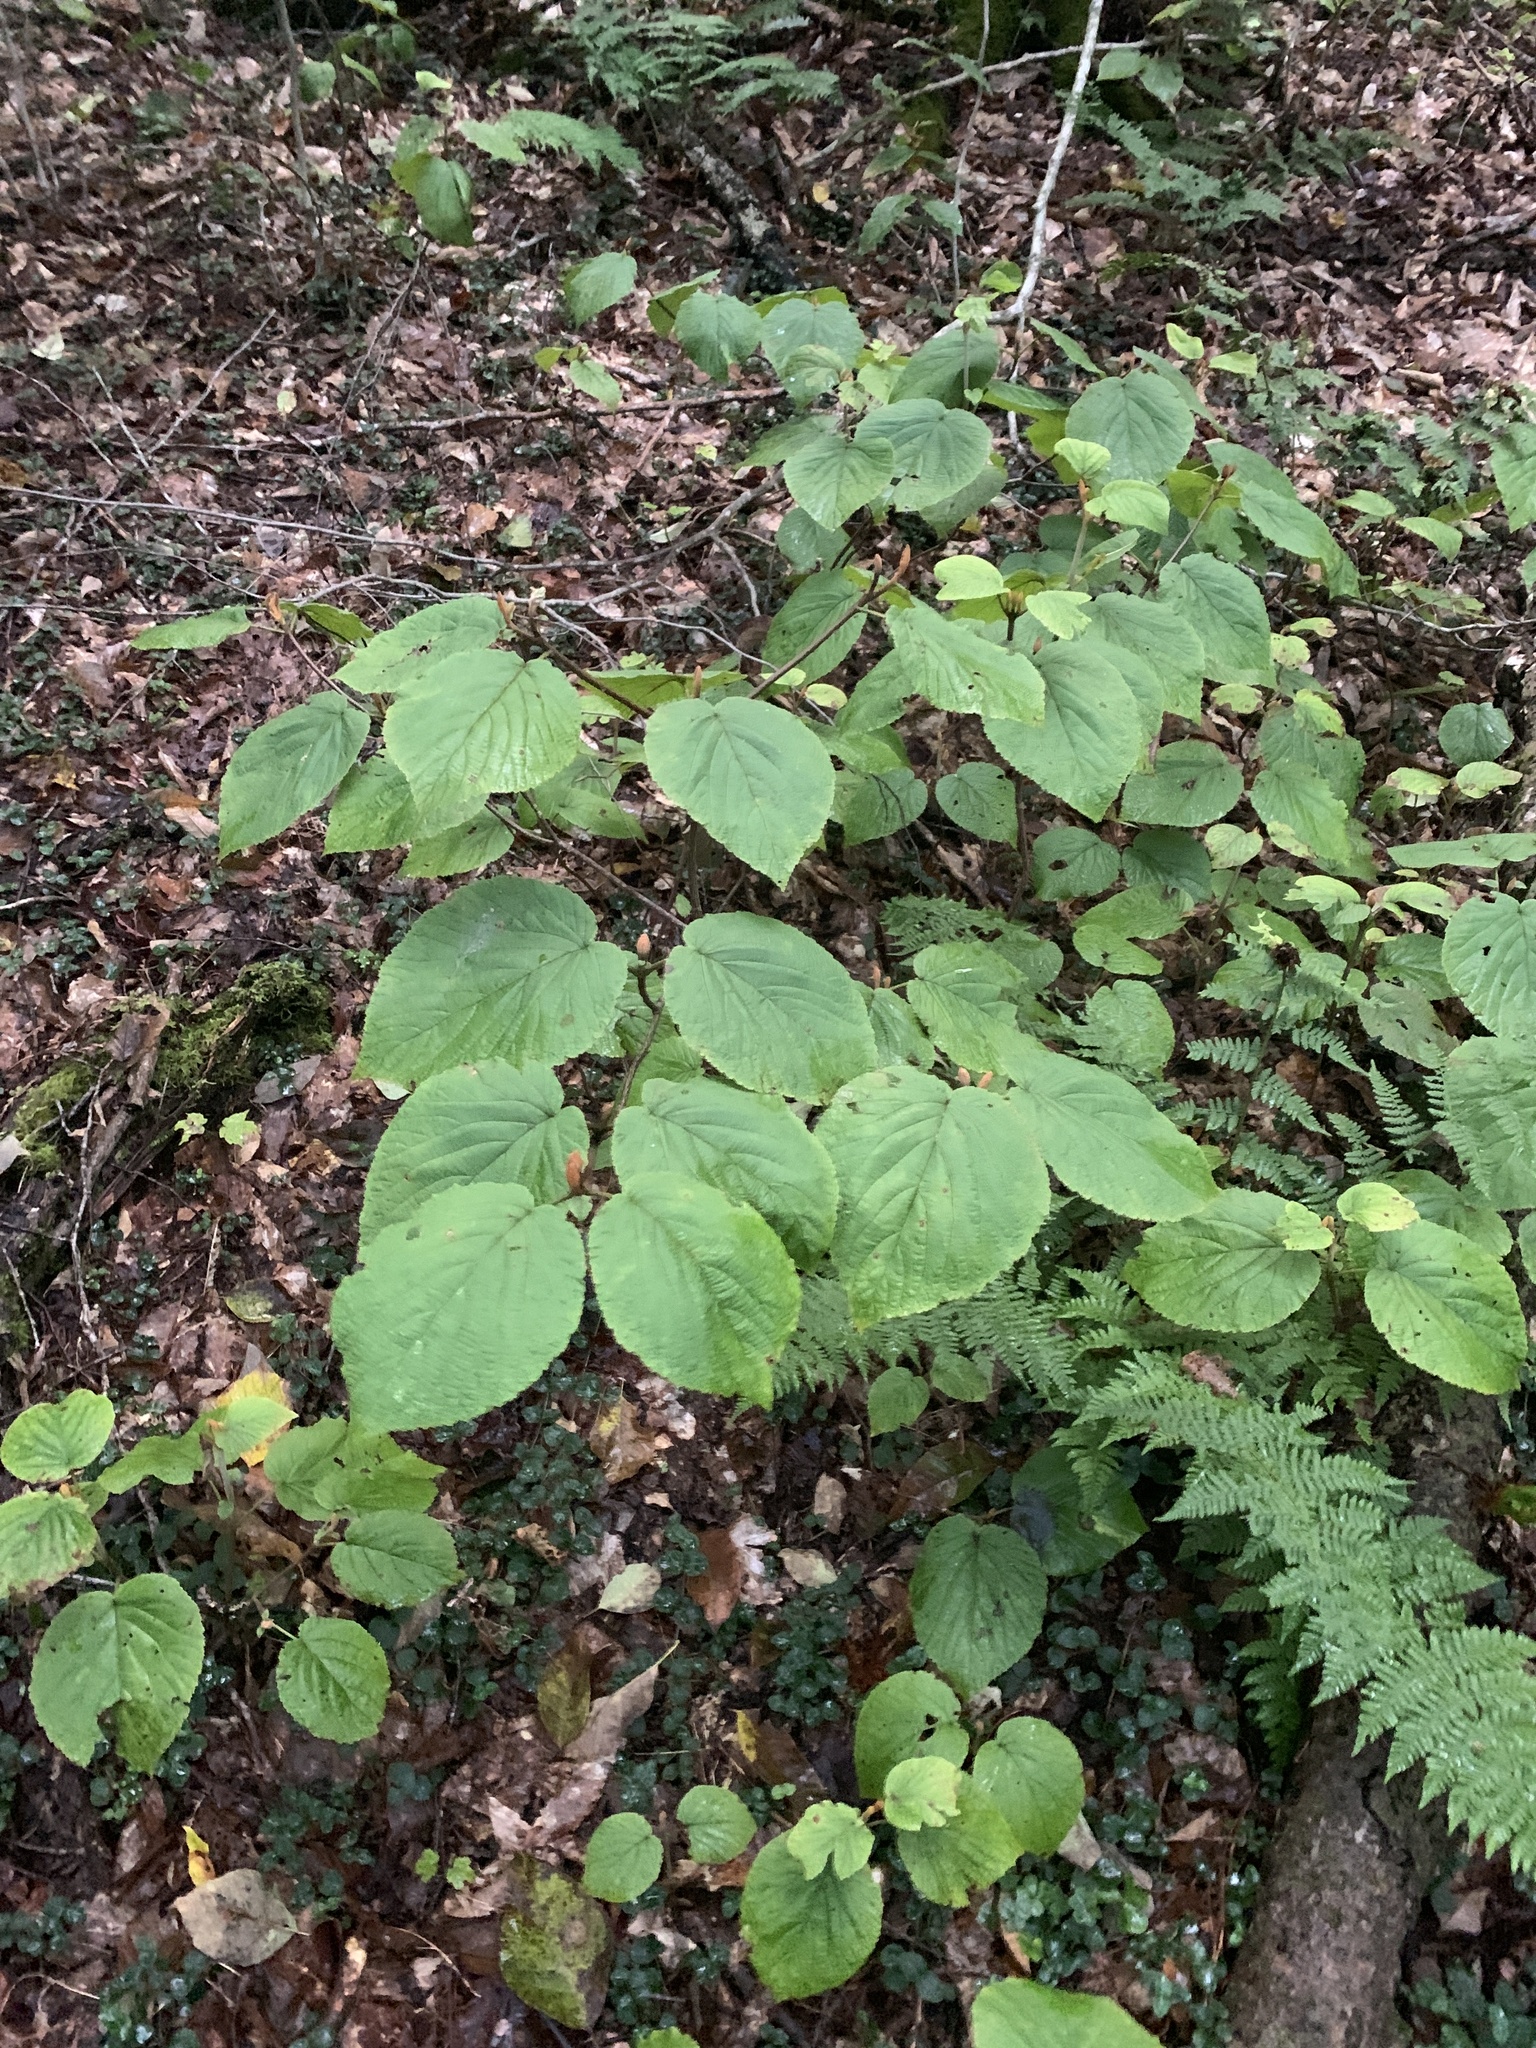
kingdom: Plantae
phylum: Tracheophyta
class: Magnoliopsida
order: Dipsacales
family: Viburnaceae
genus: Viburnum
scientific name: Viburnum lantanoides
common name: Hobblebush
